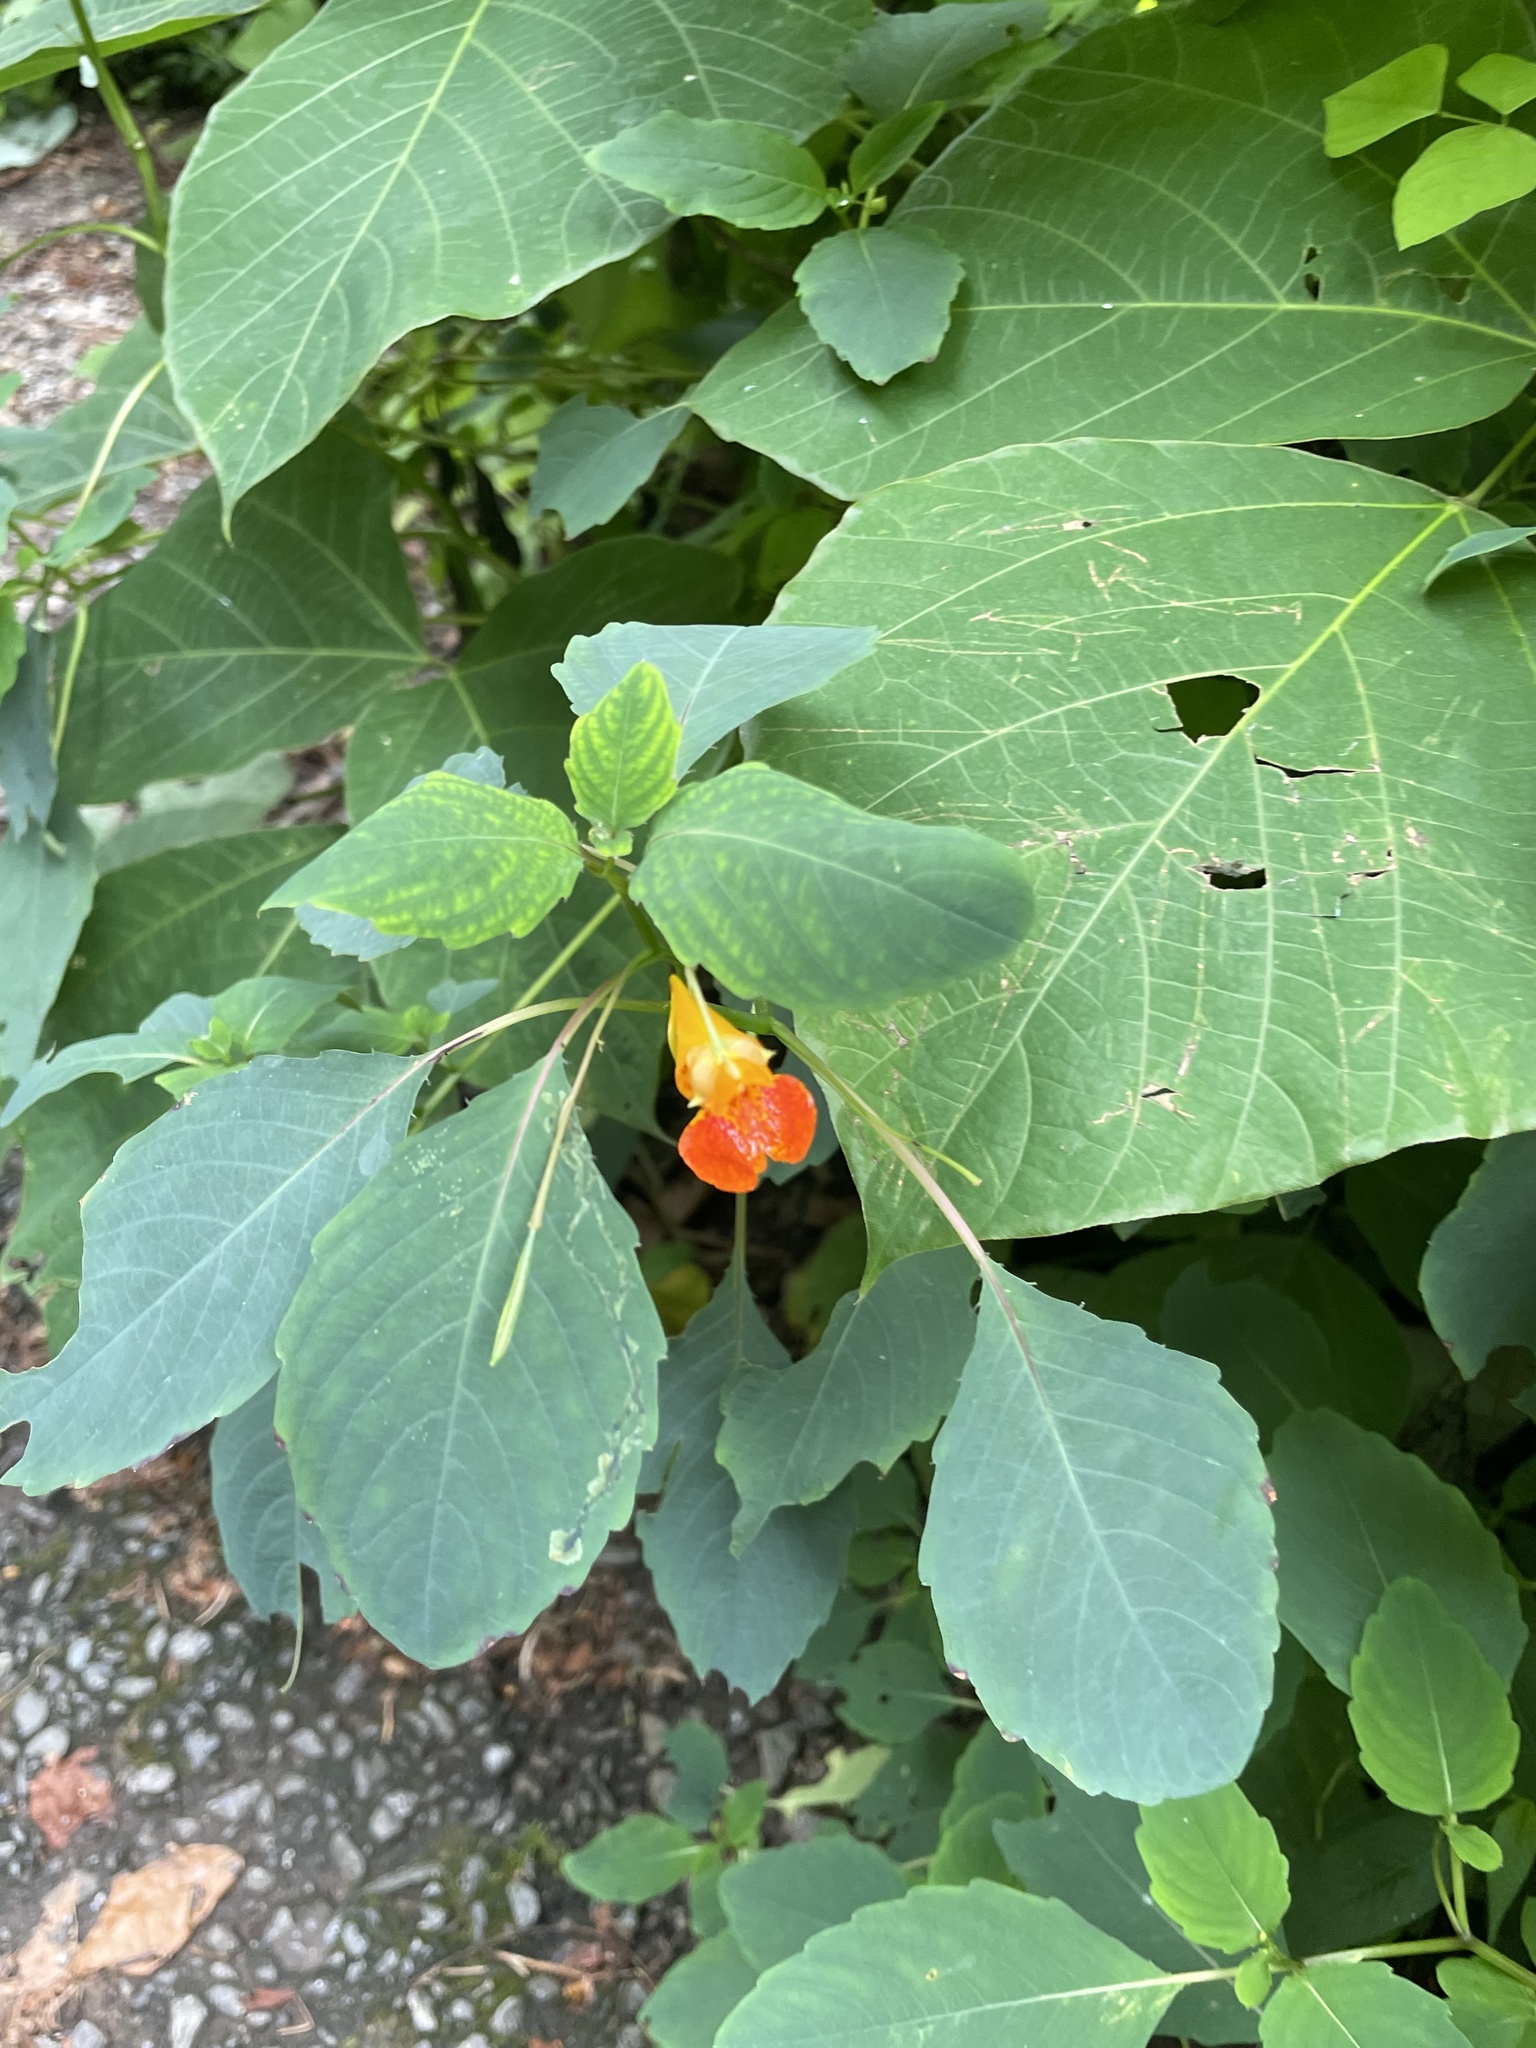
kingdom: Plantae
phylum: Tracheophyta
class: Magnoliopsida
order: Ericales
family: Balsaminaceae
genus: Impatiens
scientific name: Impatiens capensis
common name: Orange balsam
